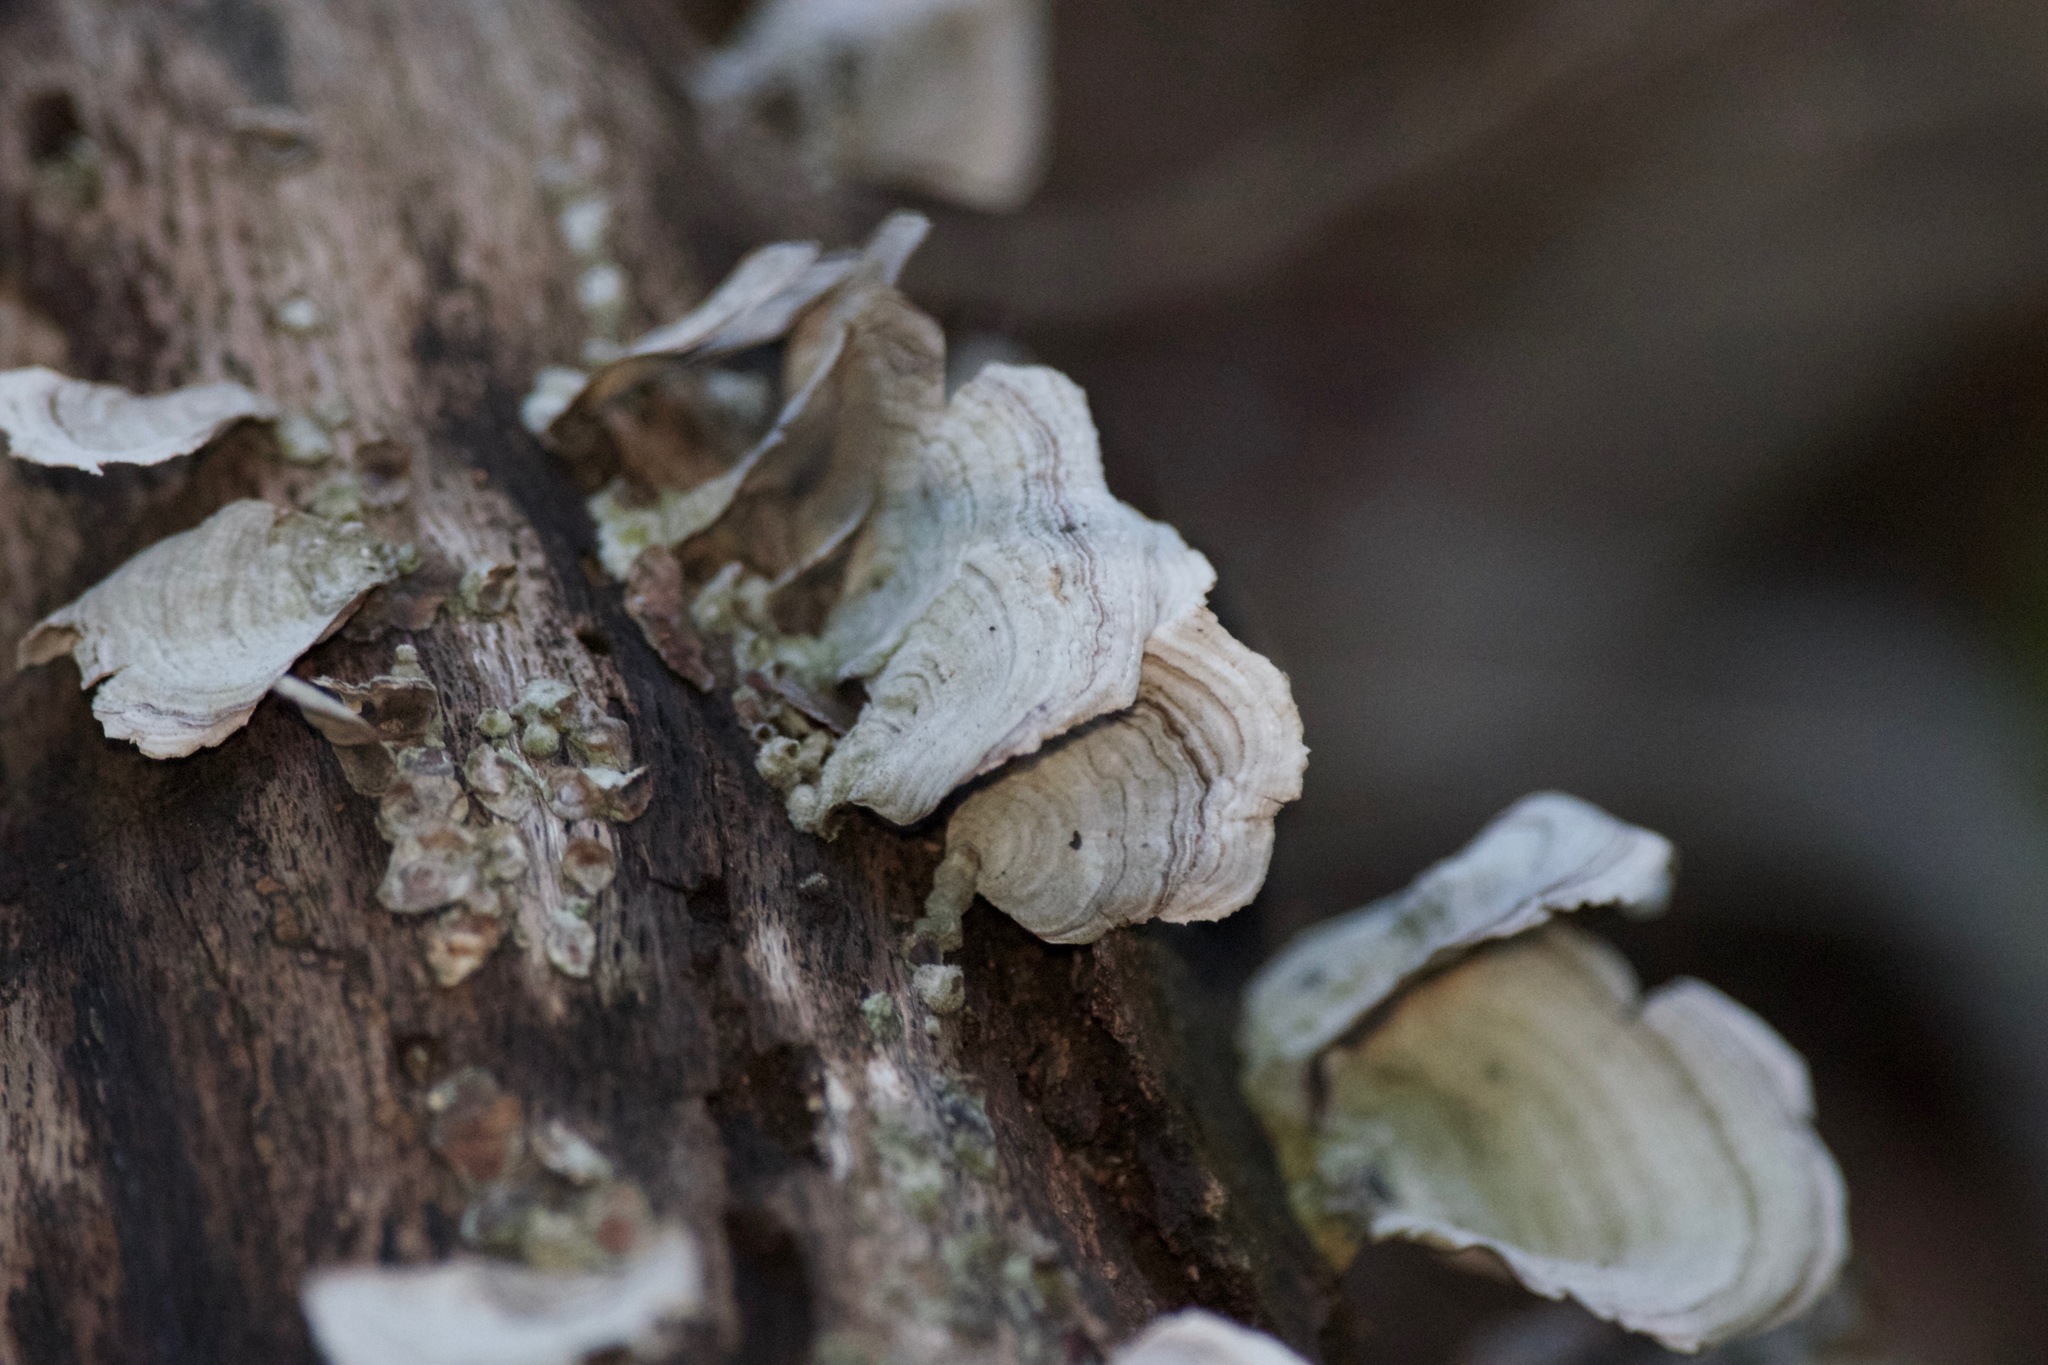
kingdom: Fungi
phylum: Basidiomycota
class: Agaricomycetes
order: Russulales
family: Stereaceae
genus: Stereum
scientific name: Stereum ostrea
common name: False turkeytail
